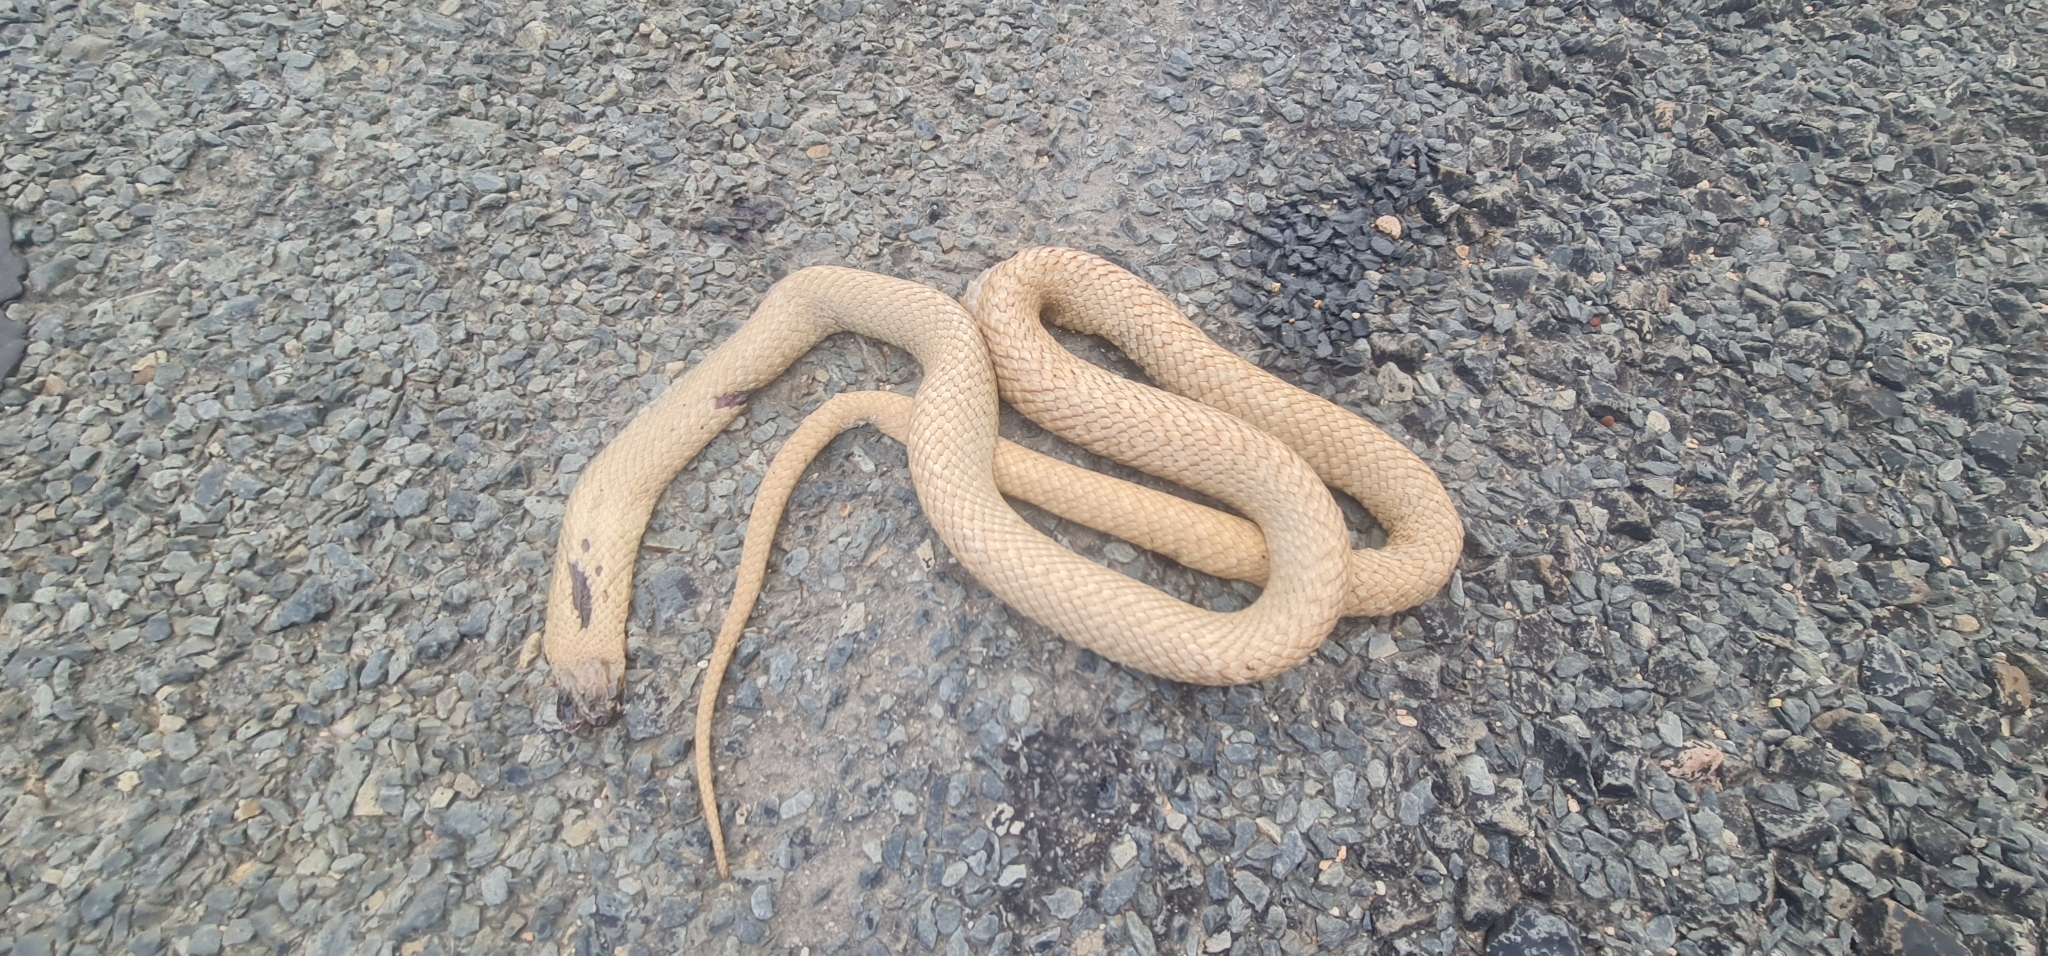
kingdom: Animalia
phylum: Chordata
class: Squamata
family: Elapidae
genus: Pseudonaja
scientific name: Pseudonaja aspidorhyncha
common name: Strap-snouted brown snake
